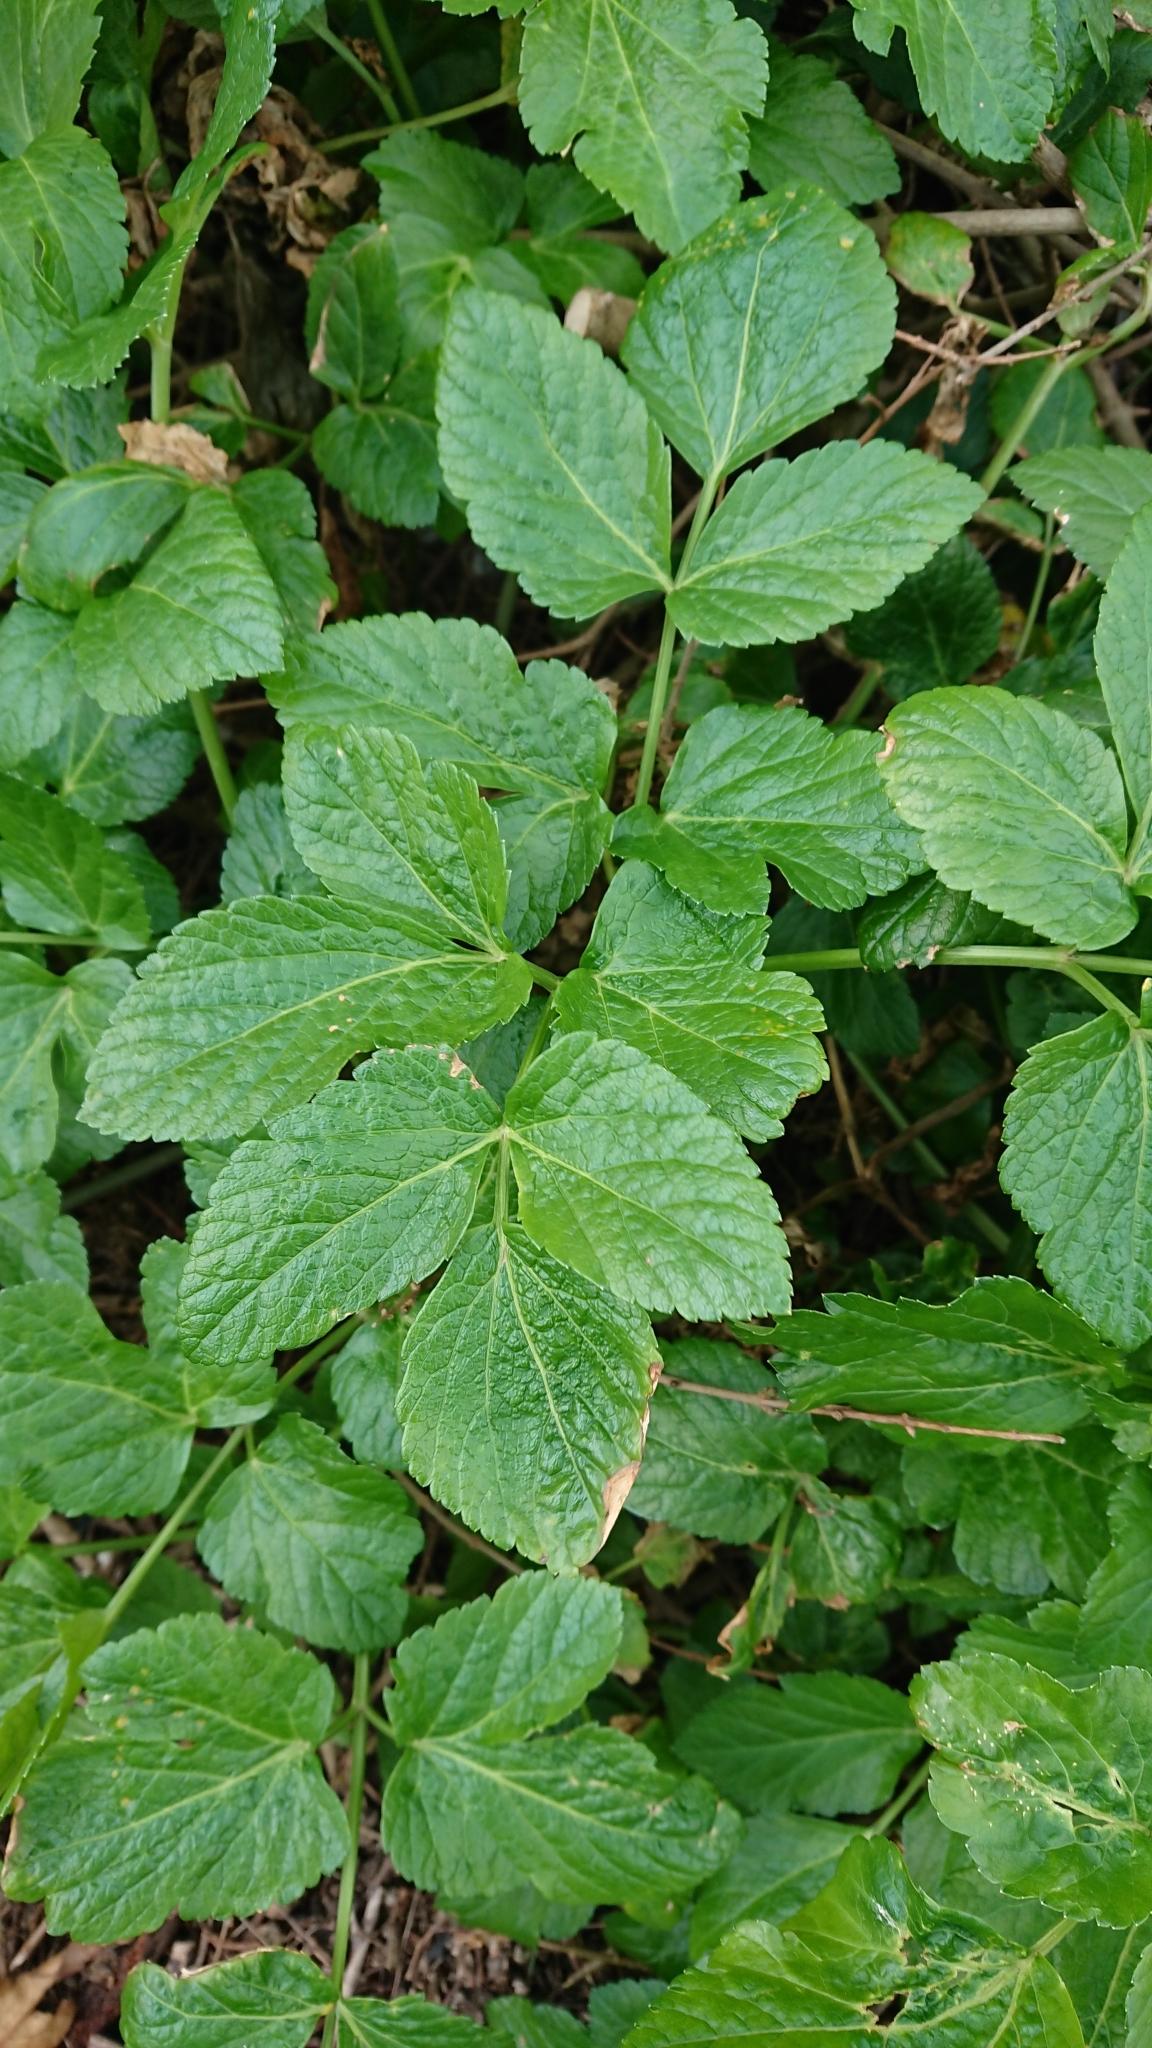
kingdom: Plantae
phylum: Tracheophyta
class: Magnoliopsida
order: Apiales
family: Apiaceae
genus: Smyrnium
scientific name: Smyrnium olusatrum
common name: Alexanders
